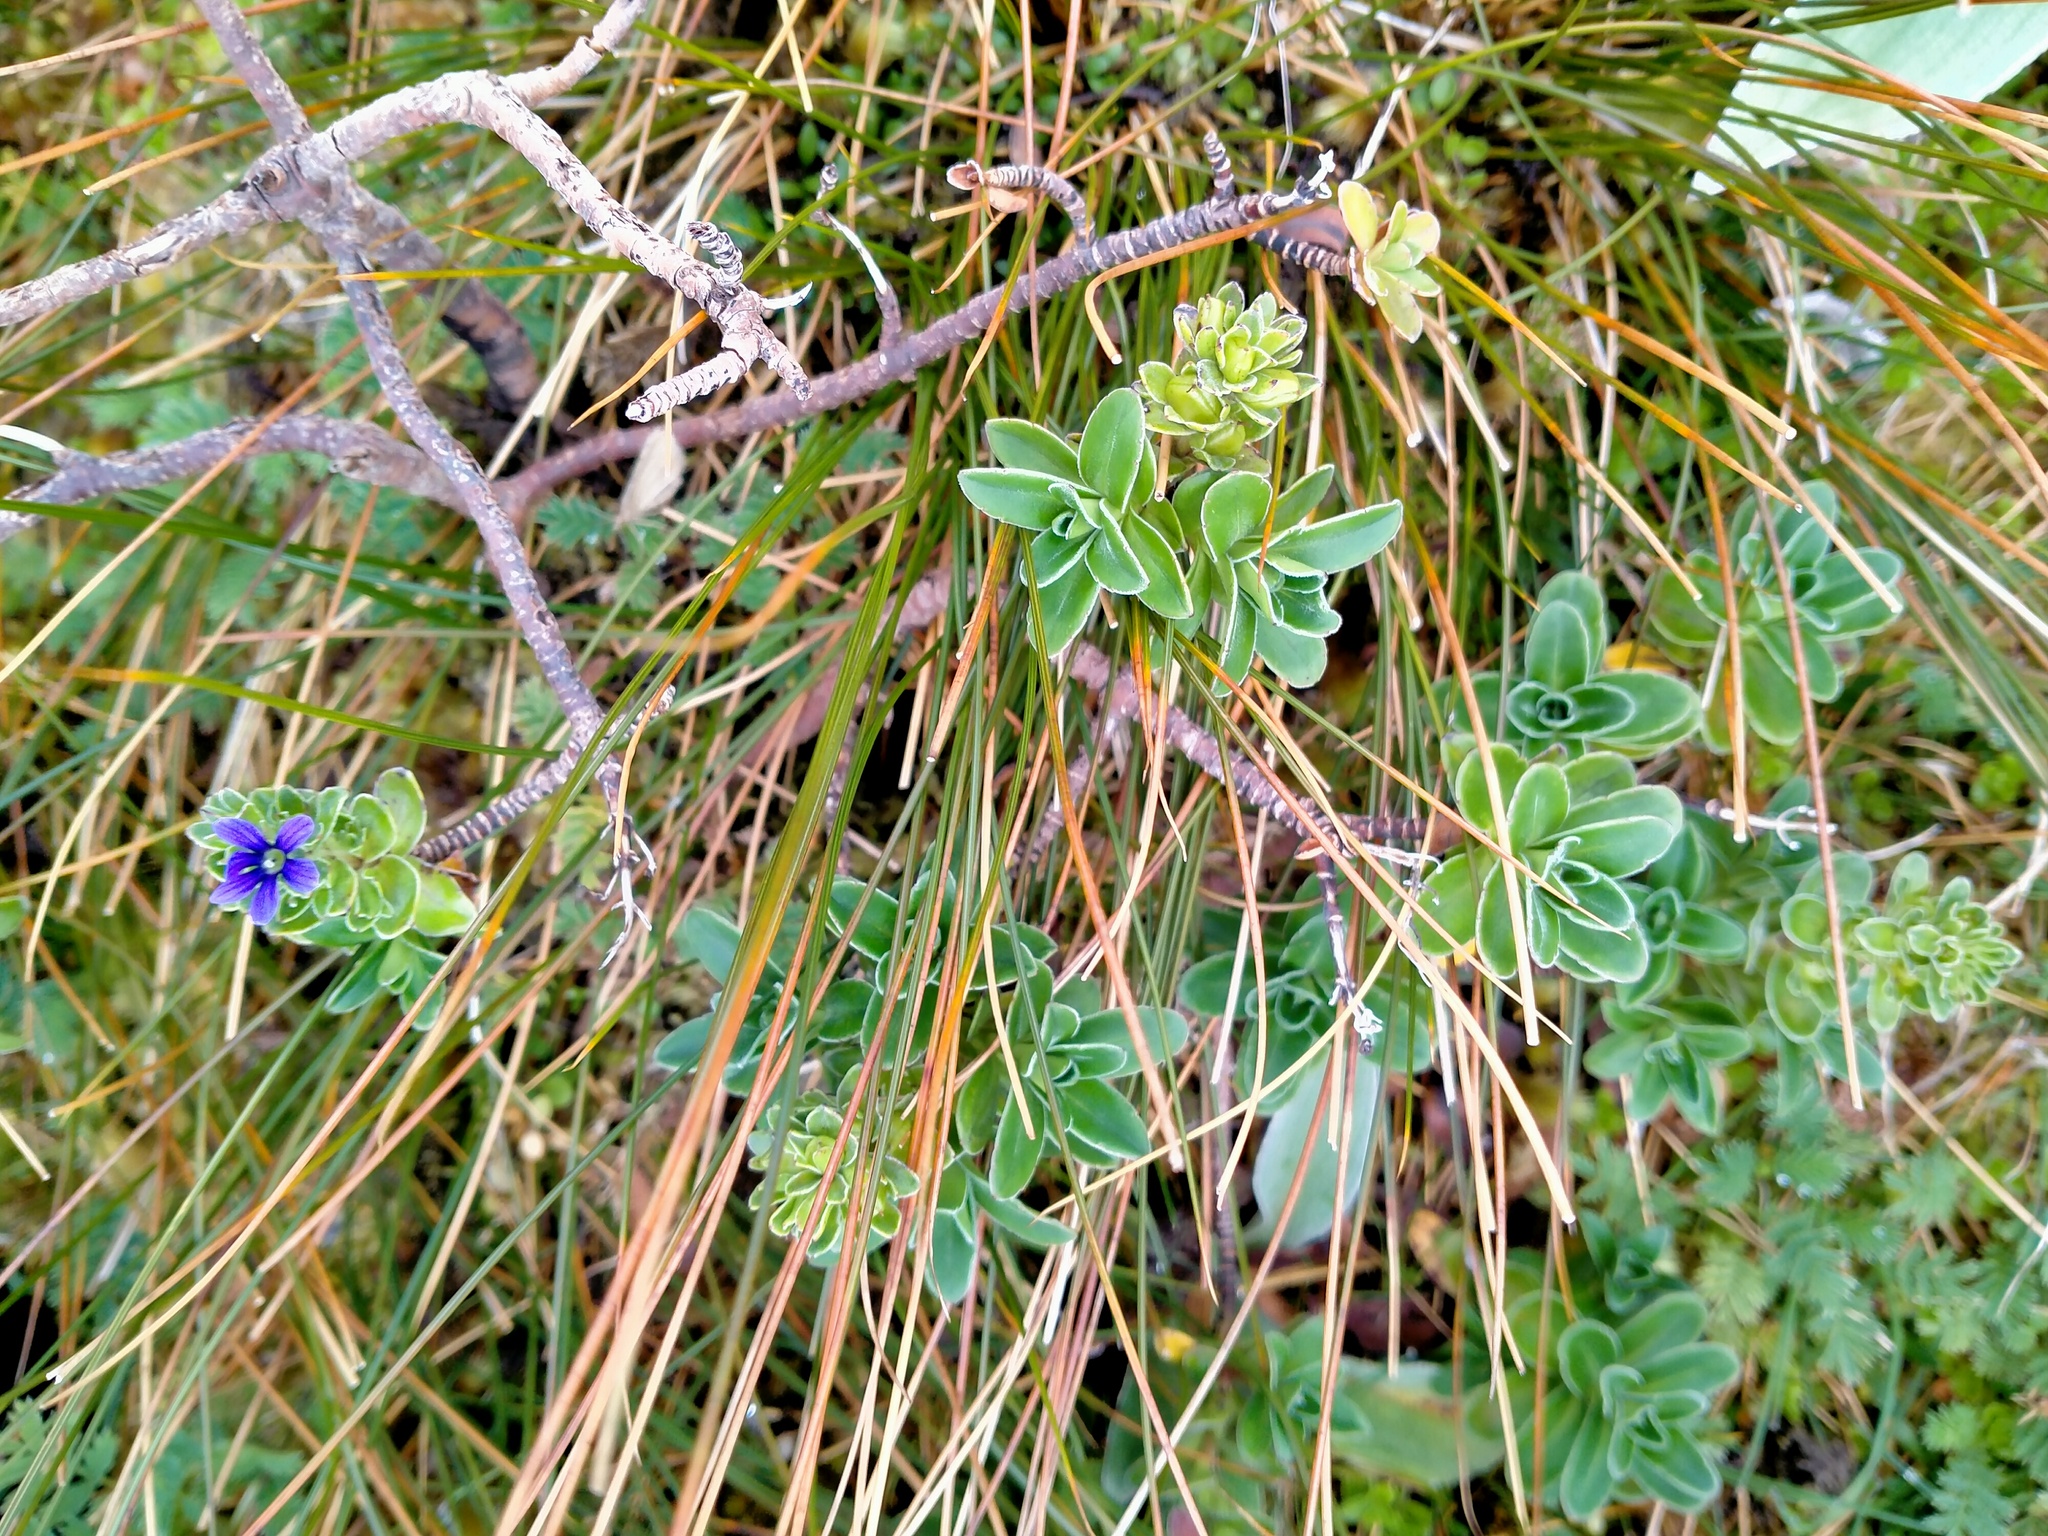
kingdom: Plantae
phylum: Tracheophyta
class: Magnoliopsida
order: Lamiales
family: Plantaginaceae
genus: Veronica
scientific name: Veronica benthamii
